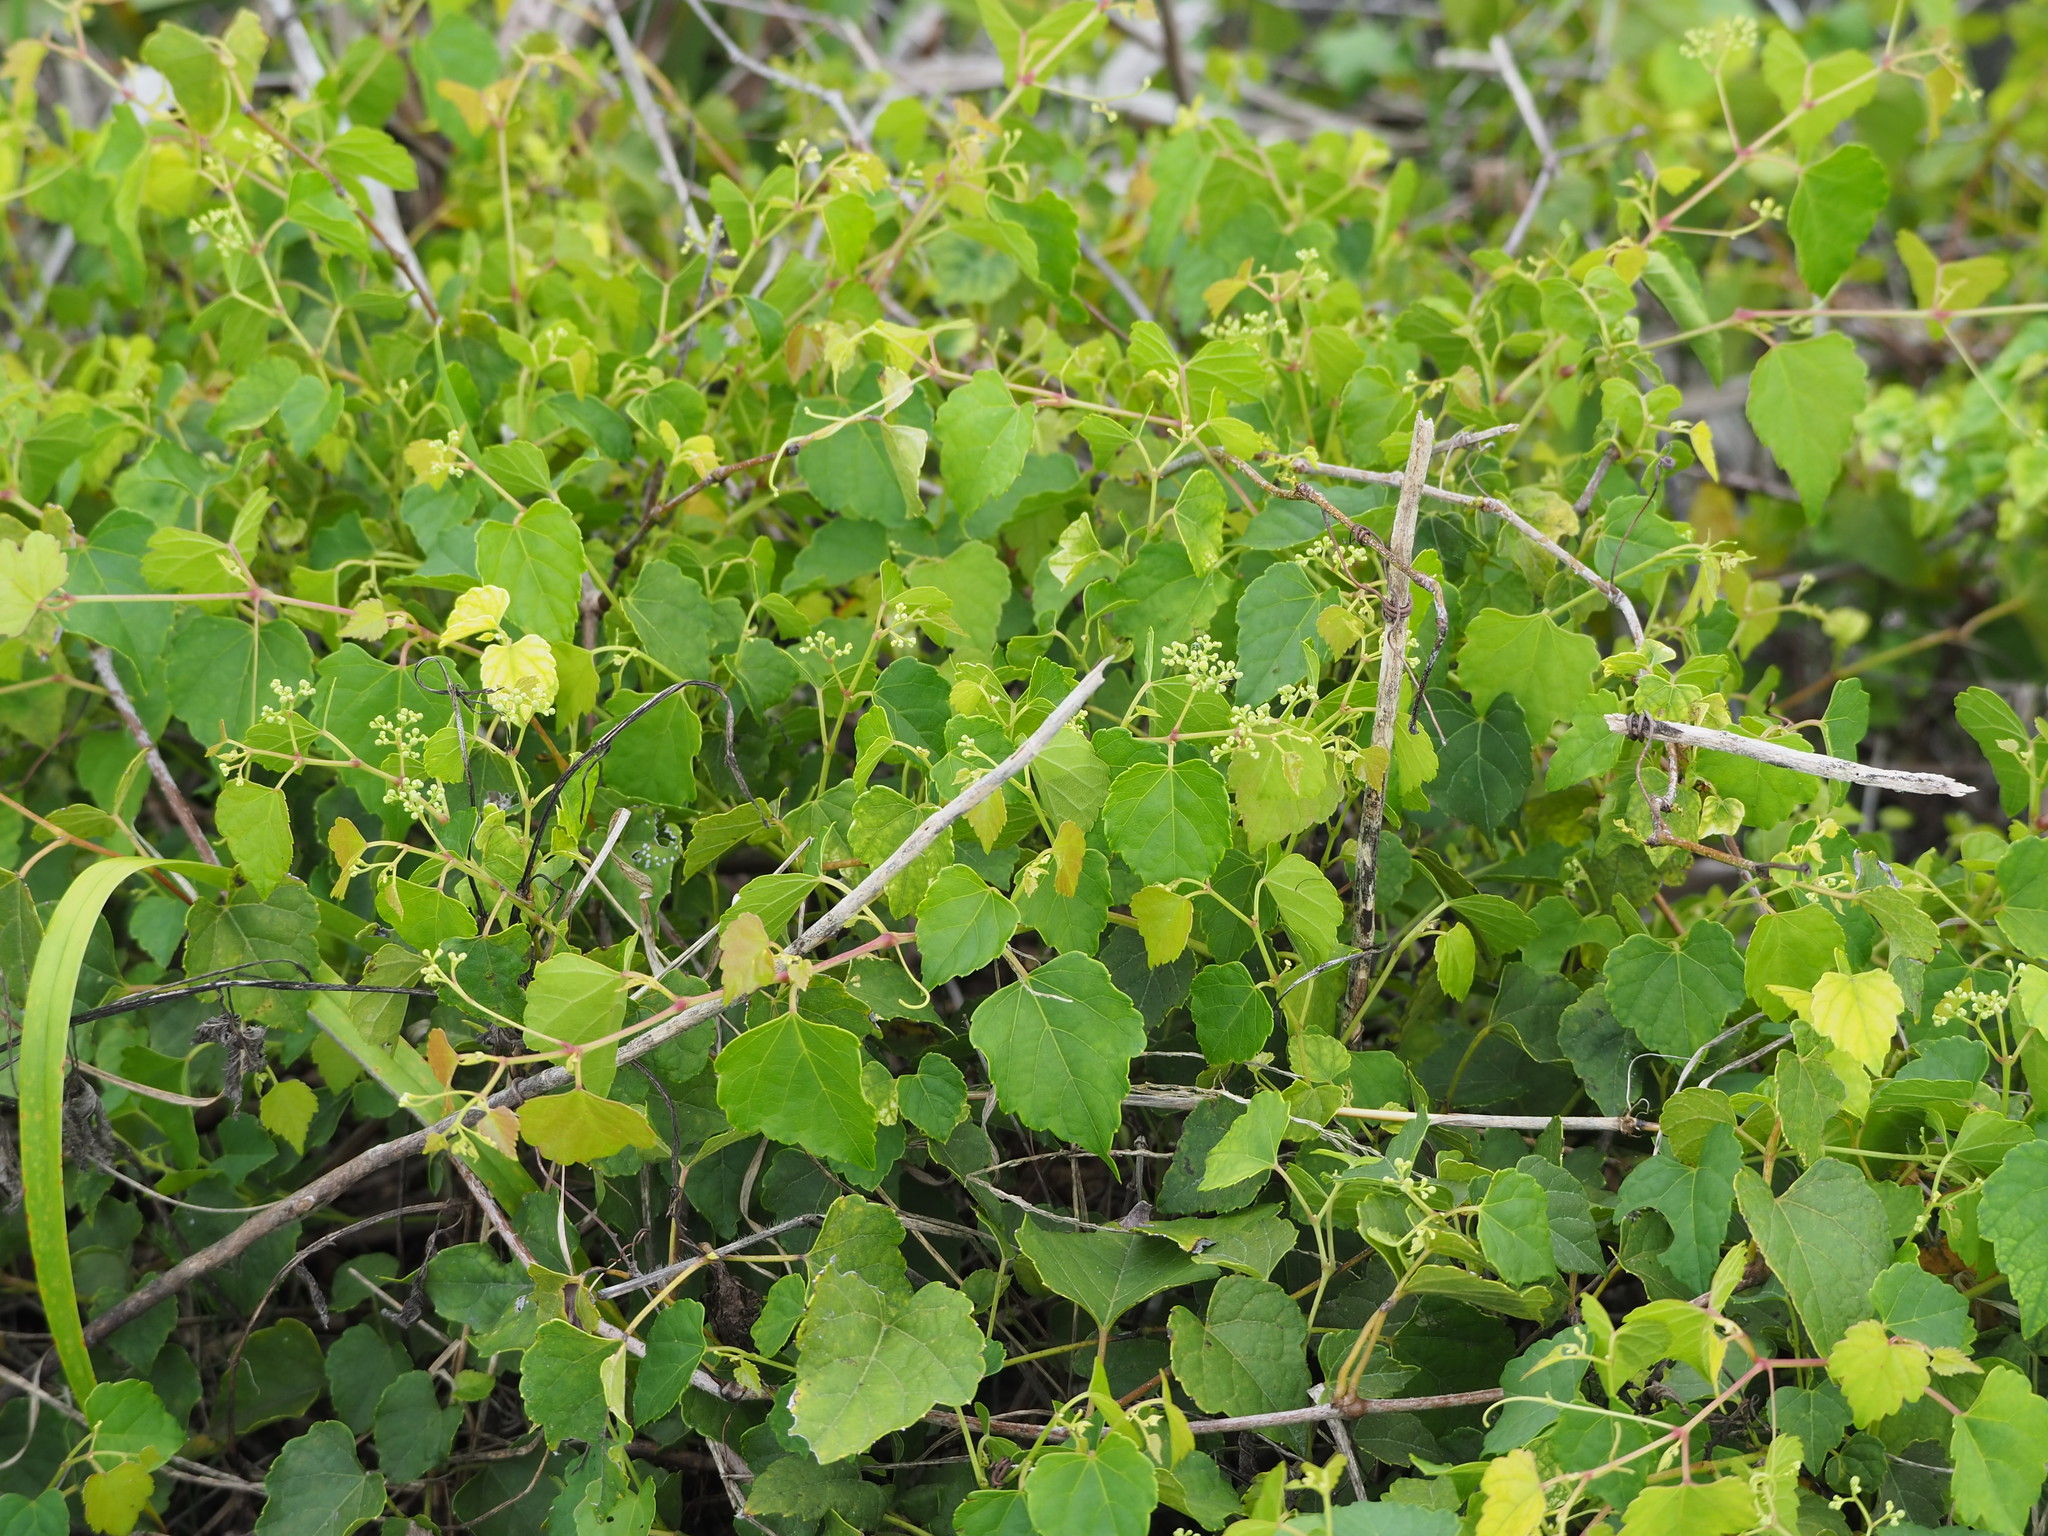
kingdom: Plantae
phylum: Tracheophyta
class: Magnoliopsida
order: Vitales
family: Vitaceae
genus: Ampelopsis
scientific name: Ampelopsis glandulosa
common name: Amur peppervine
